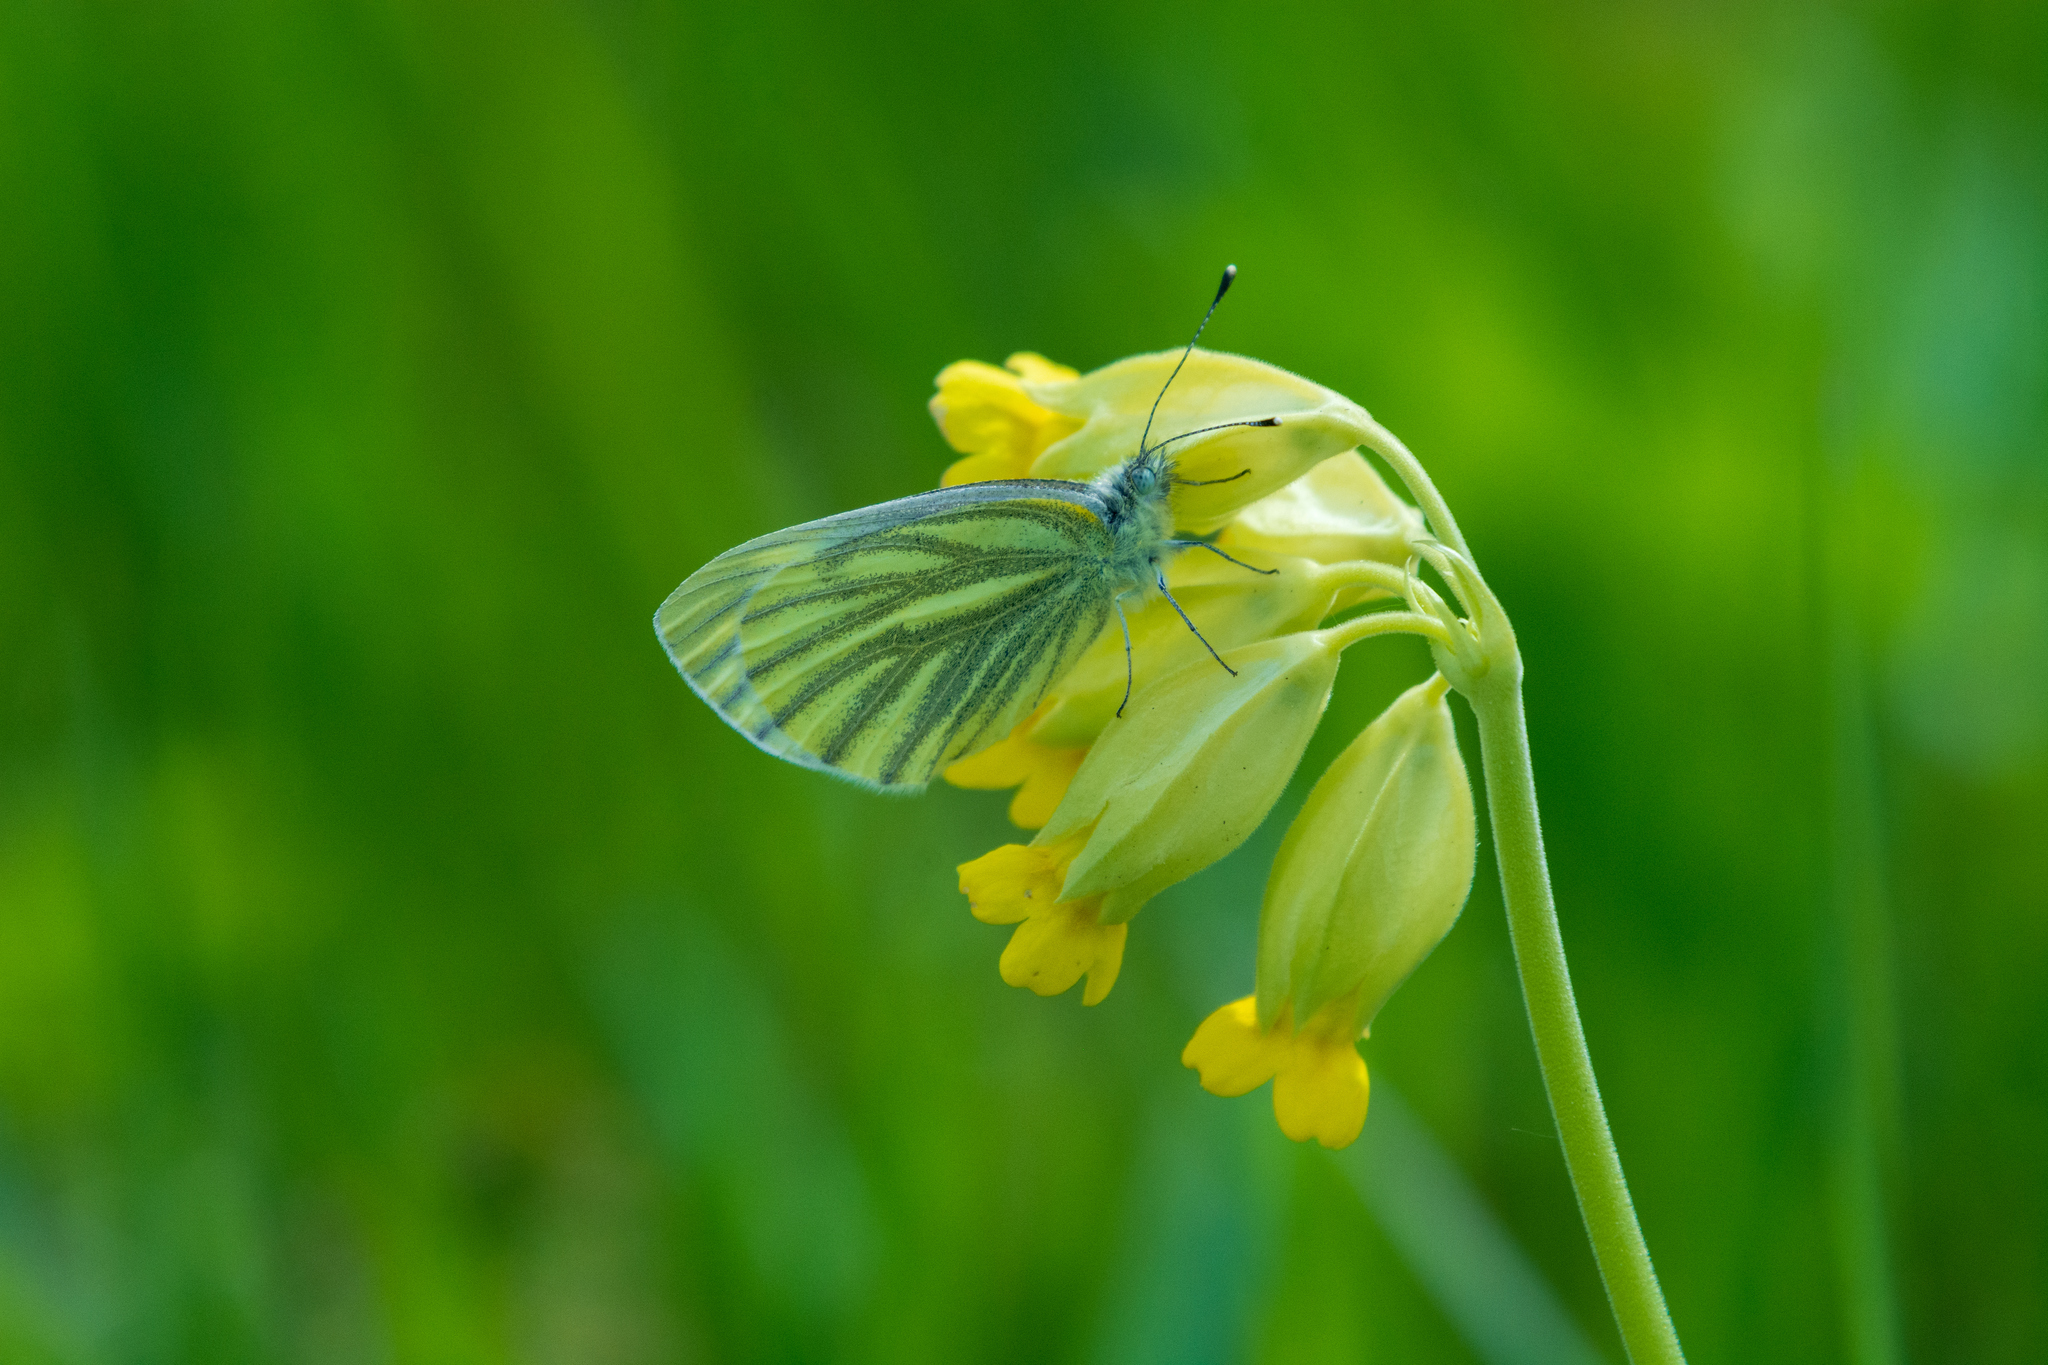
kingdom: Animalia
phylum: Arthropoda
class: Insecta
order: Lepidoptera
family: Pieridae
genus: Pieris
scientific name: Pieris napi
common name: Green-veined white
